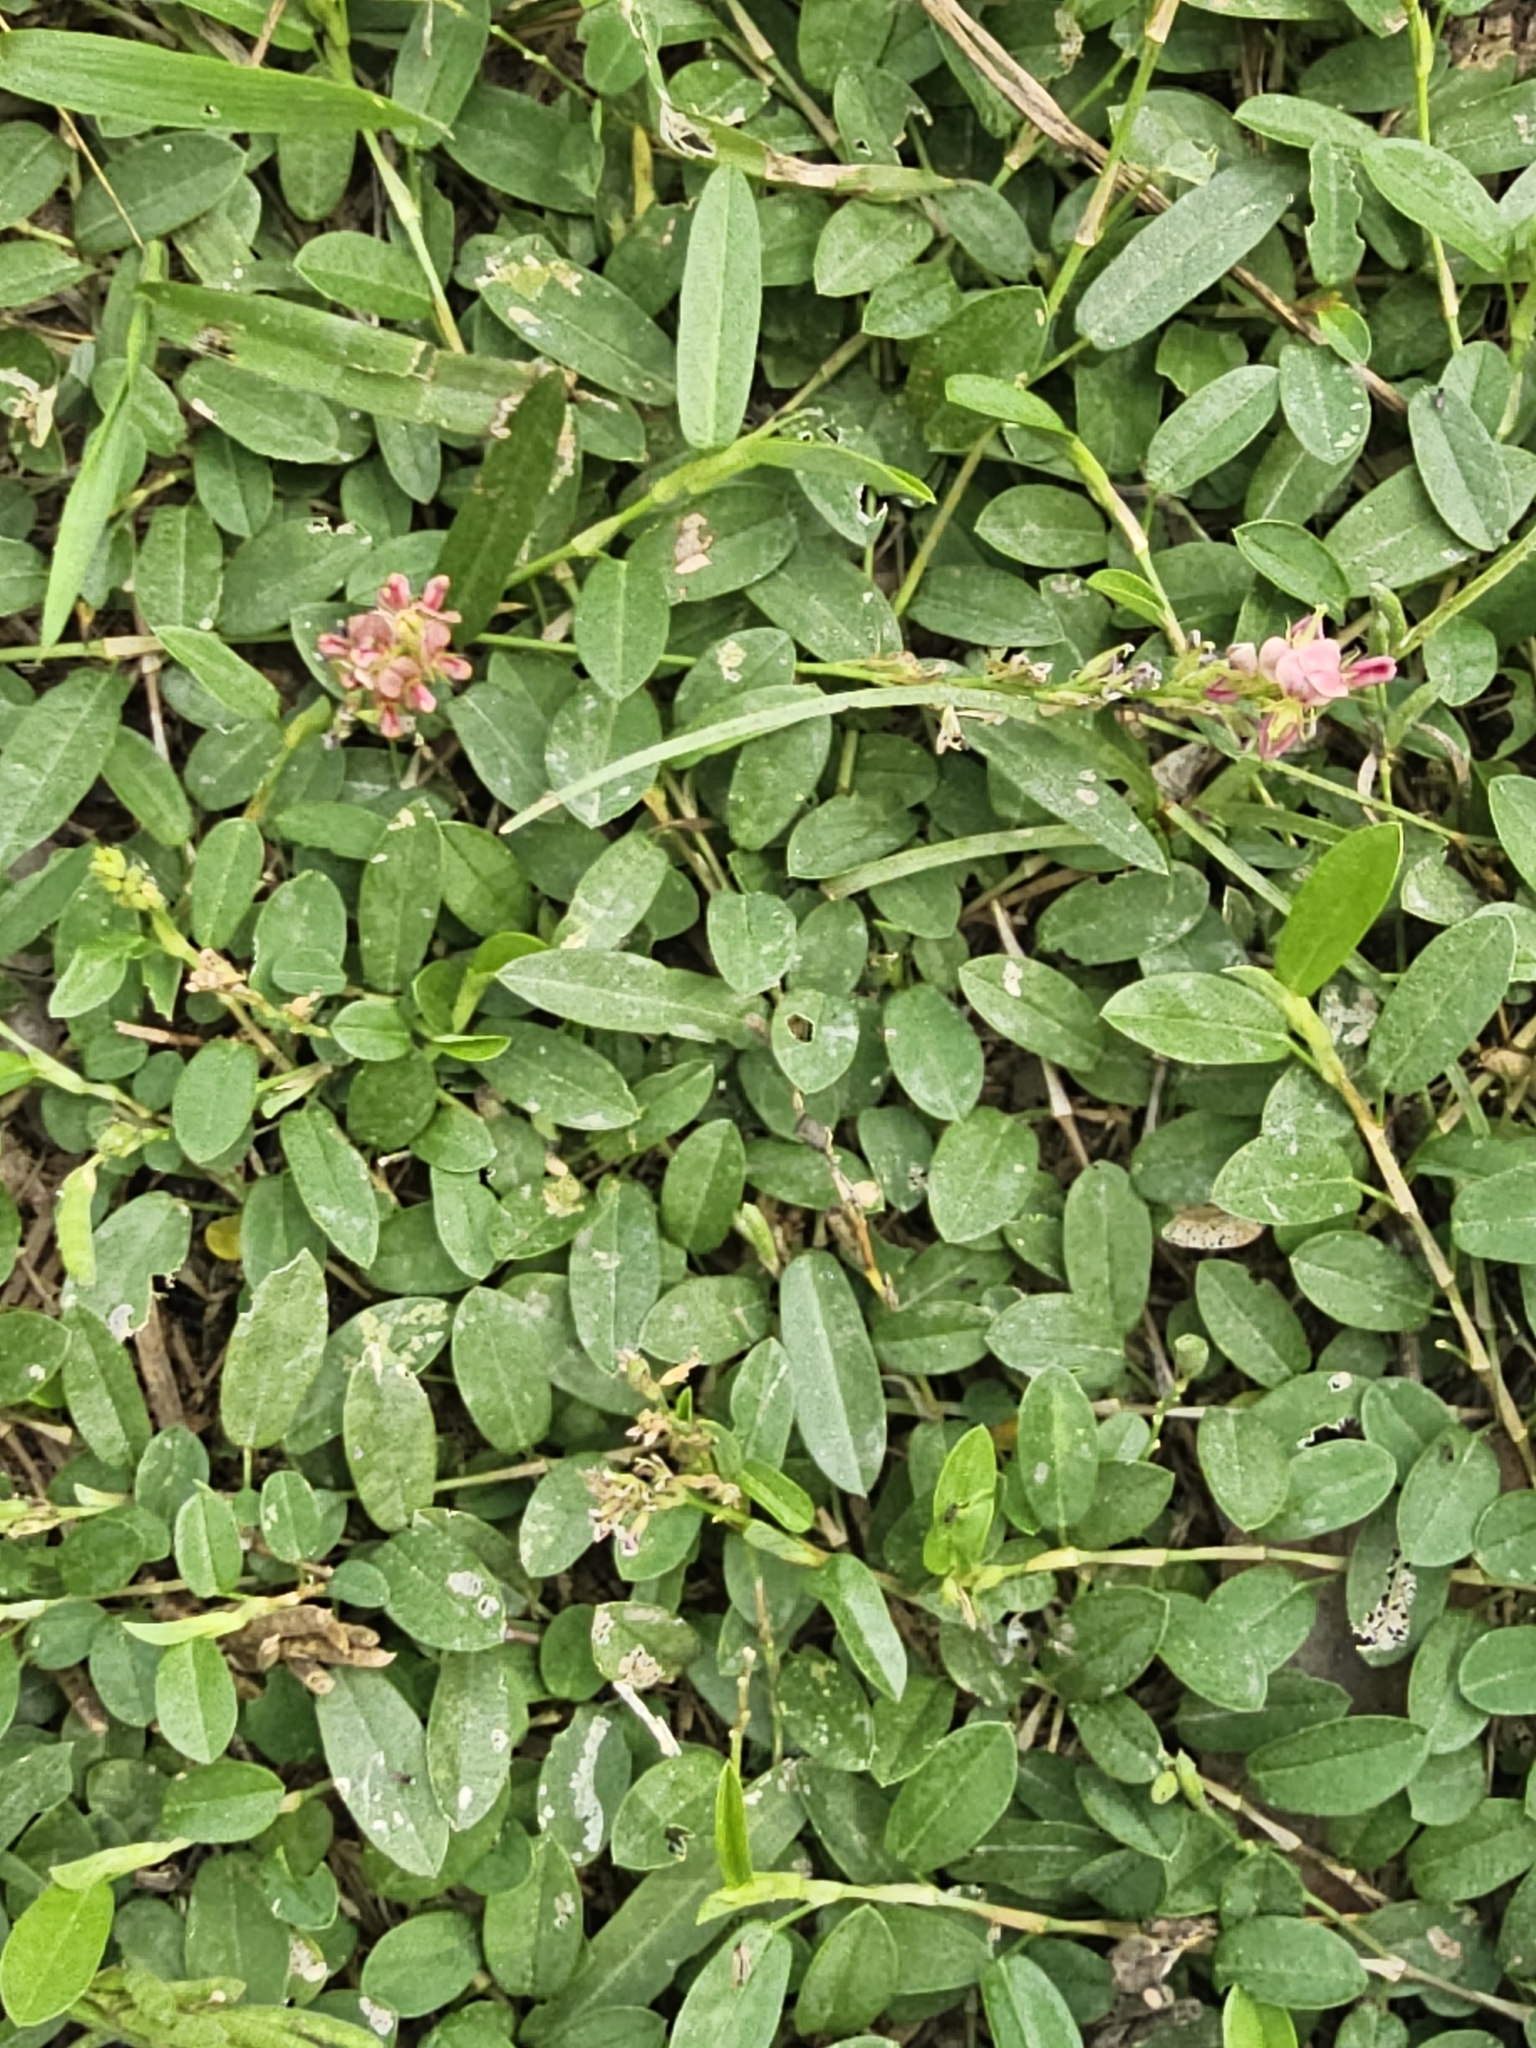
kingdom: Plantae
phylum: Tracheophyta
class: Magnoliopsida
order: Fabales
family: Fabaceae
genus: Alysicarpus
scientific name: Alysicarpus vaginalis
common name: White moneywort
